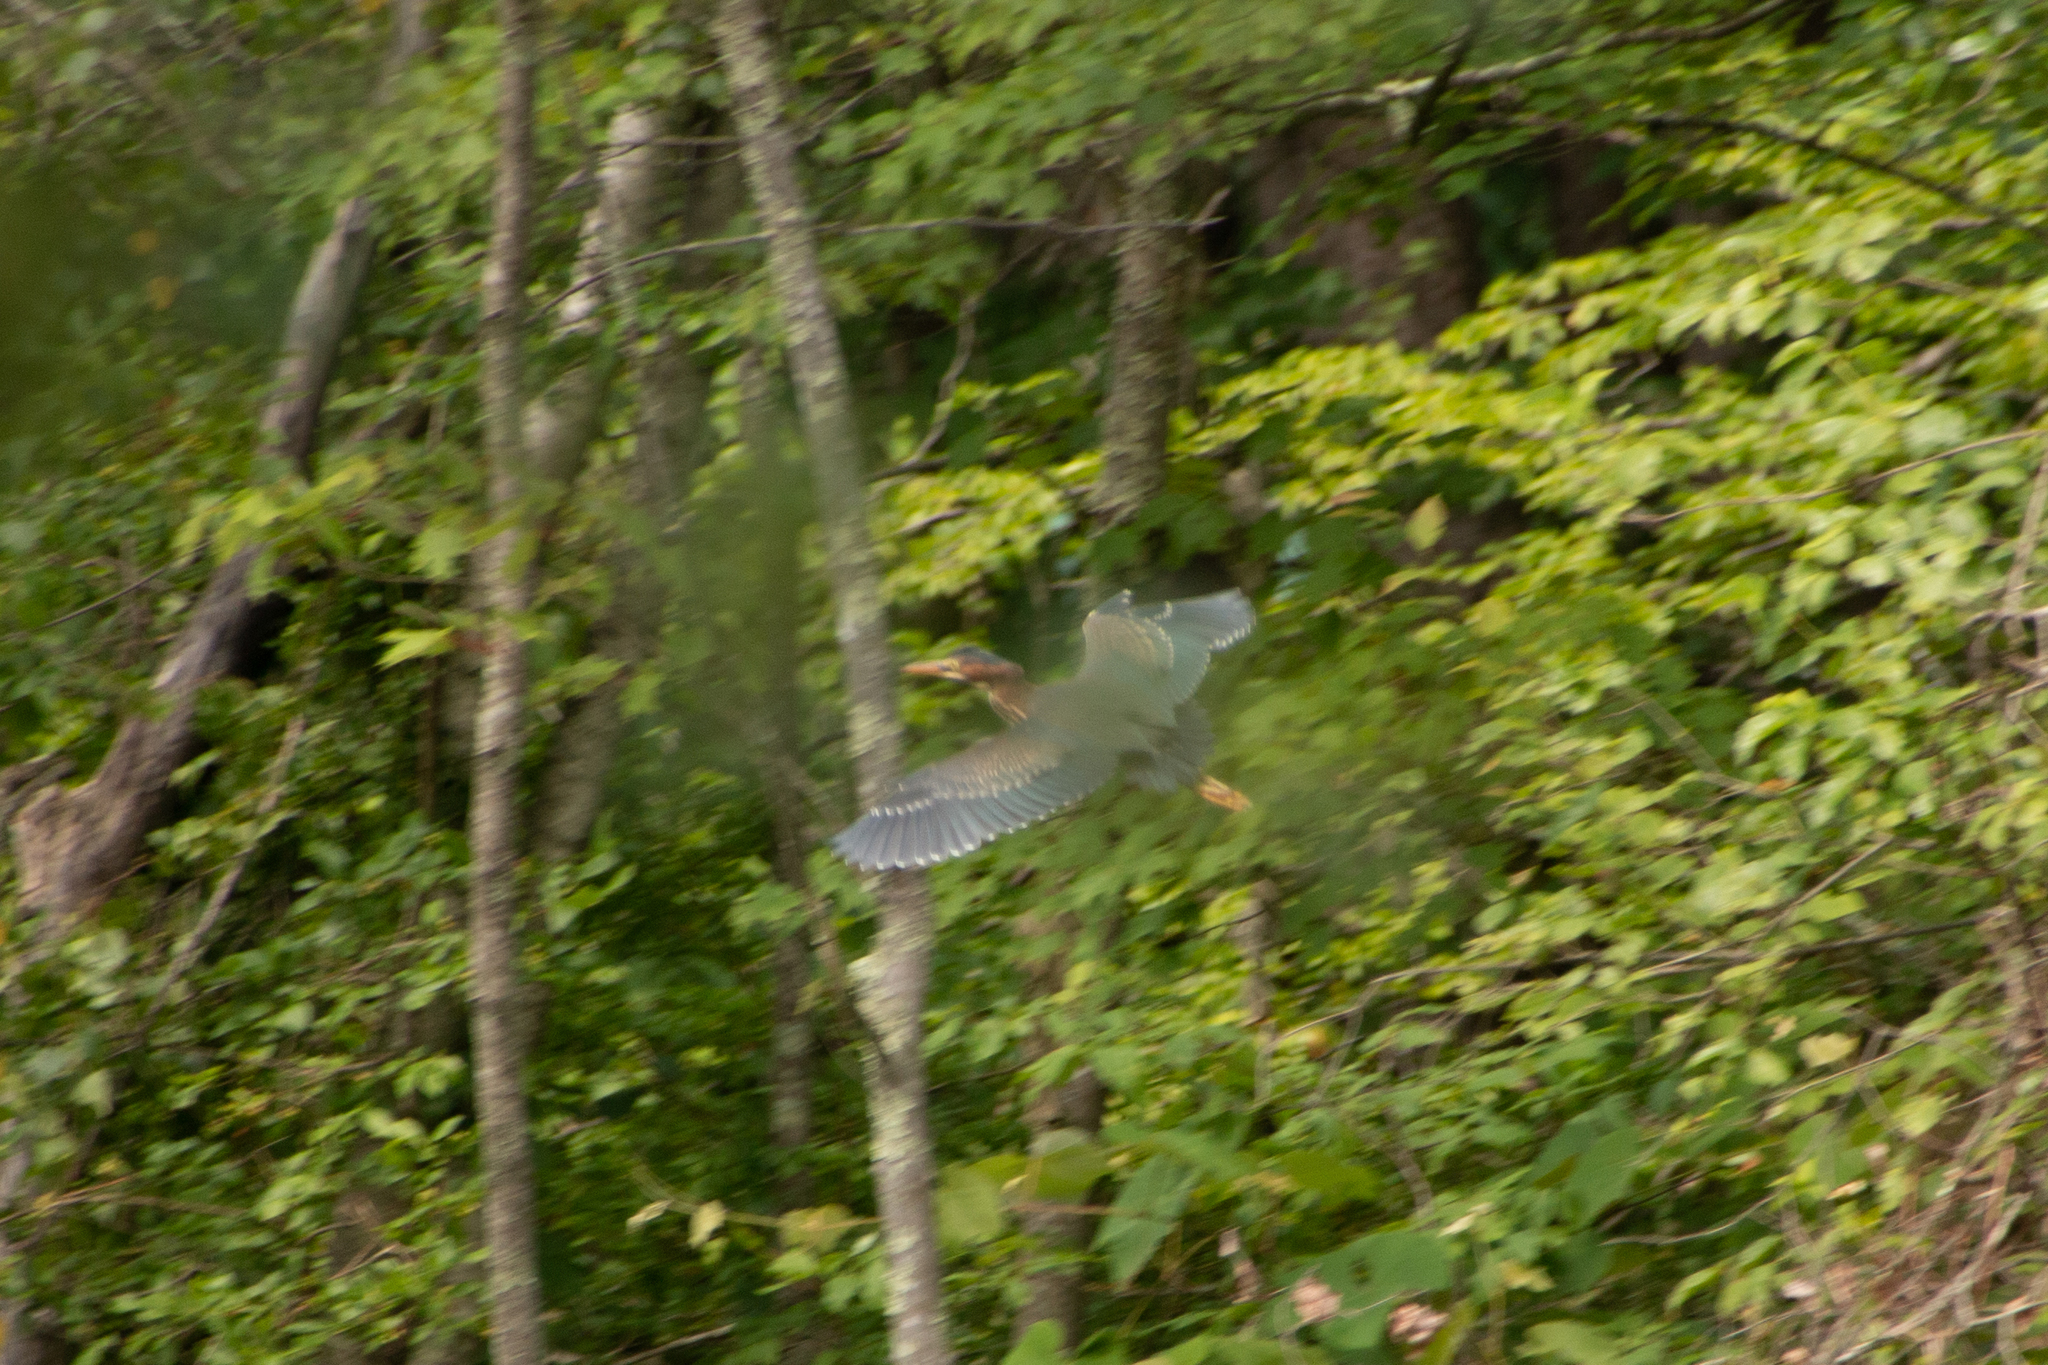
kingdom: Animalia
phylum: Chordata
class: Aves
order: Pelecaniformes
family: Ardeidae
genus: Butorides
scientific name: Butorides virescens
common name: Green heron
